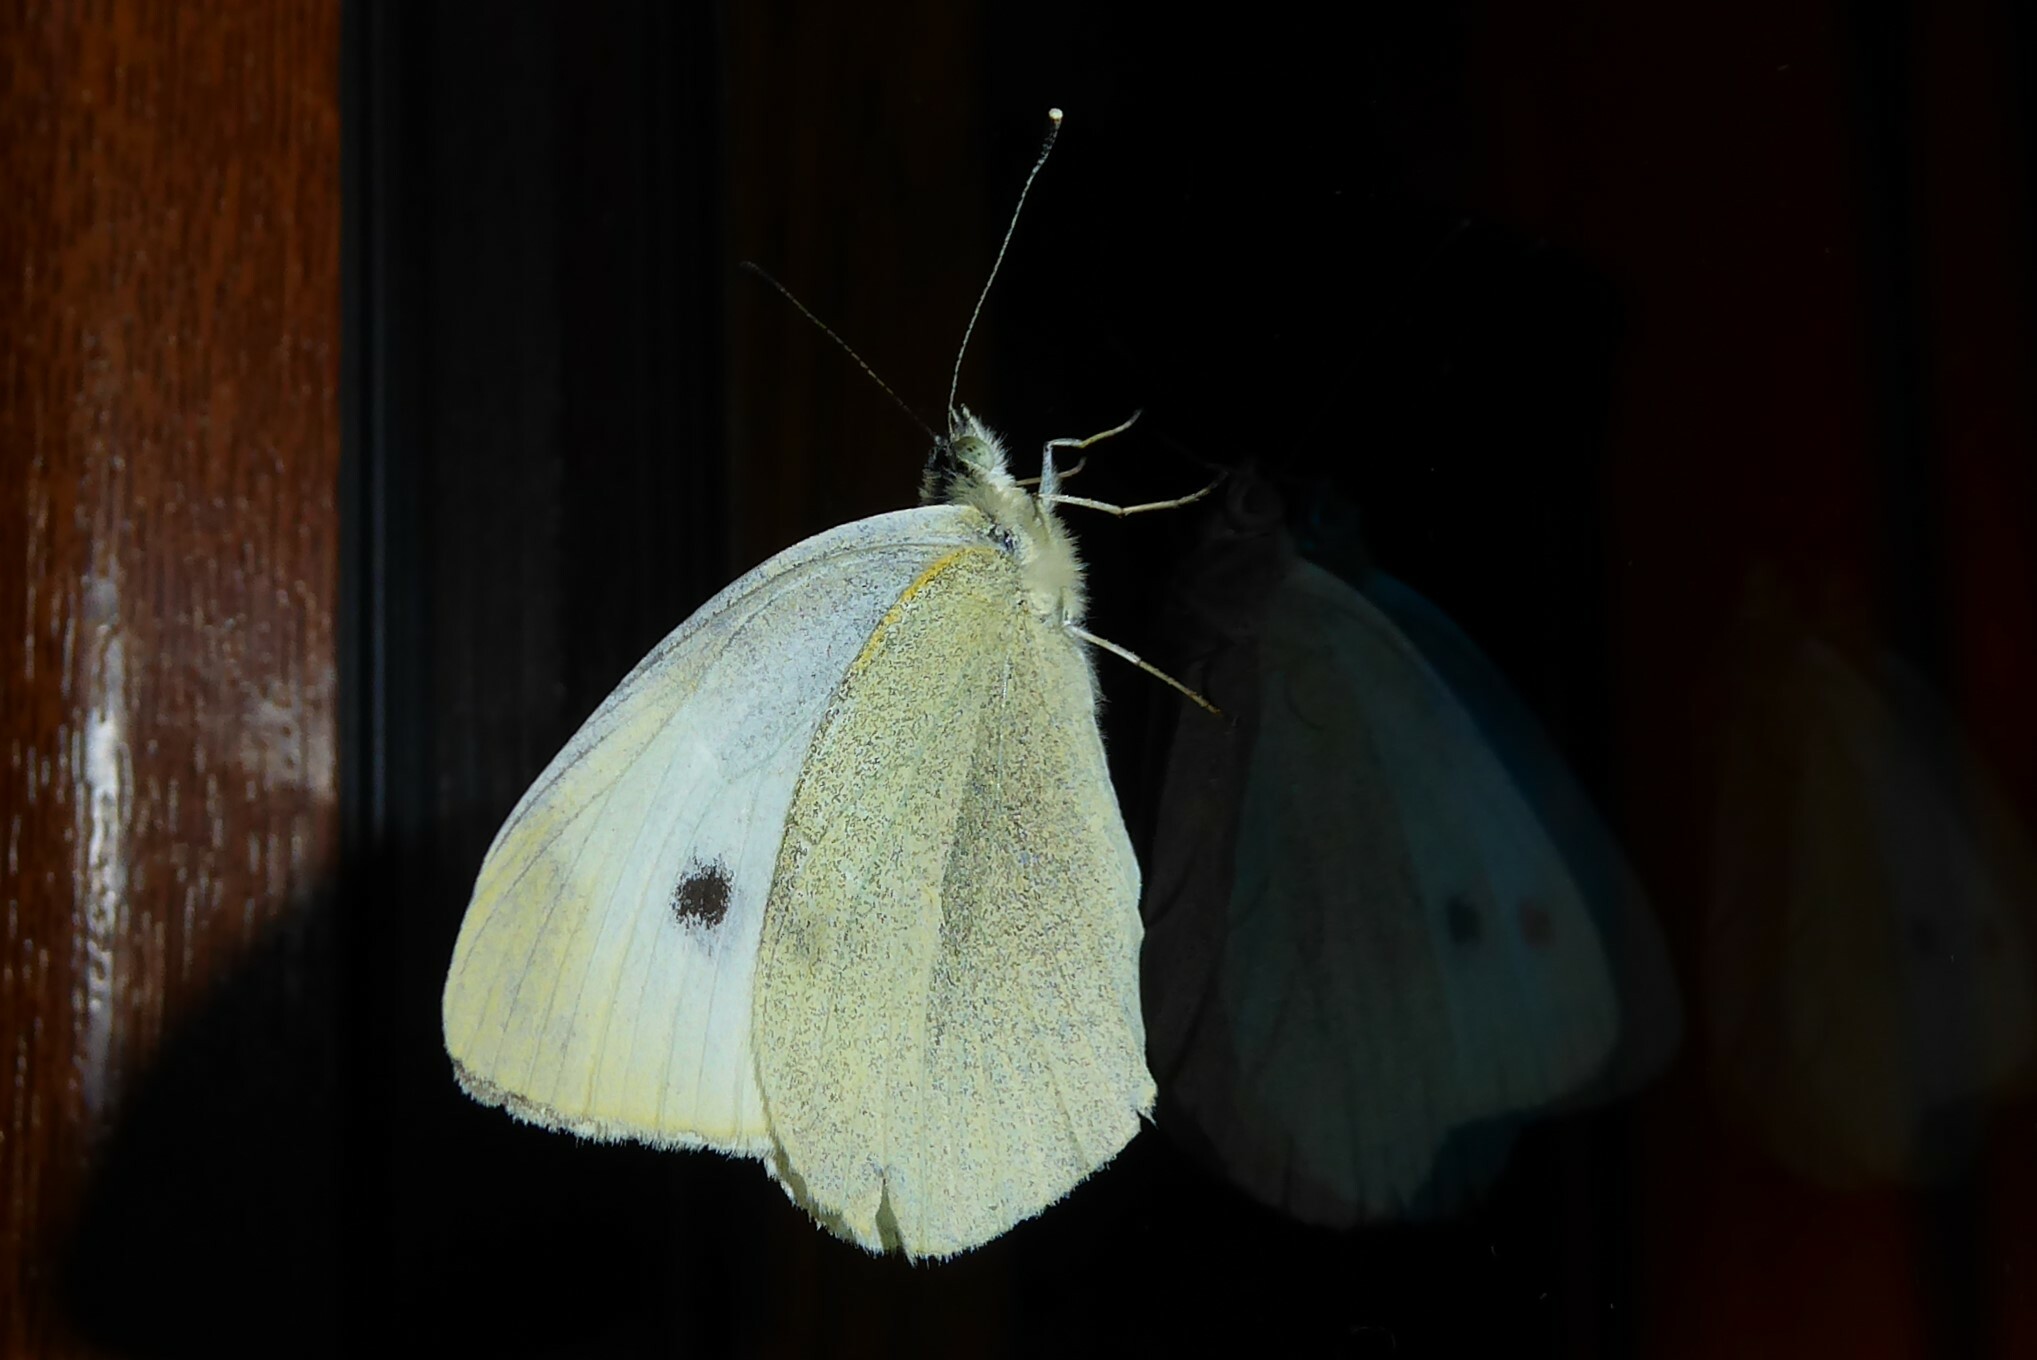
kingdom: Animalia
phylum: Arthropoda
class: Insecta
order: Lepidoptera
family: Pieridae
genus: Pieris
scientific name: Pieris rapae
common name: Small white
